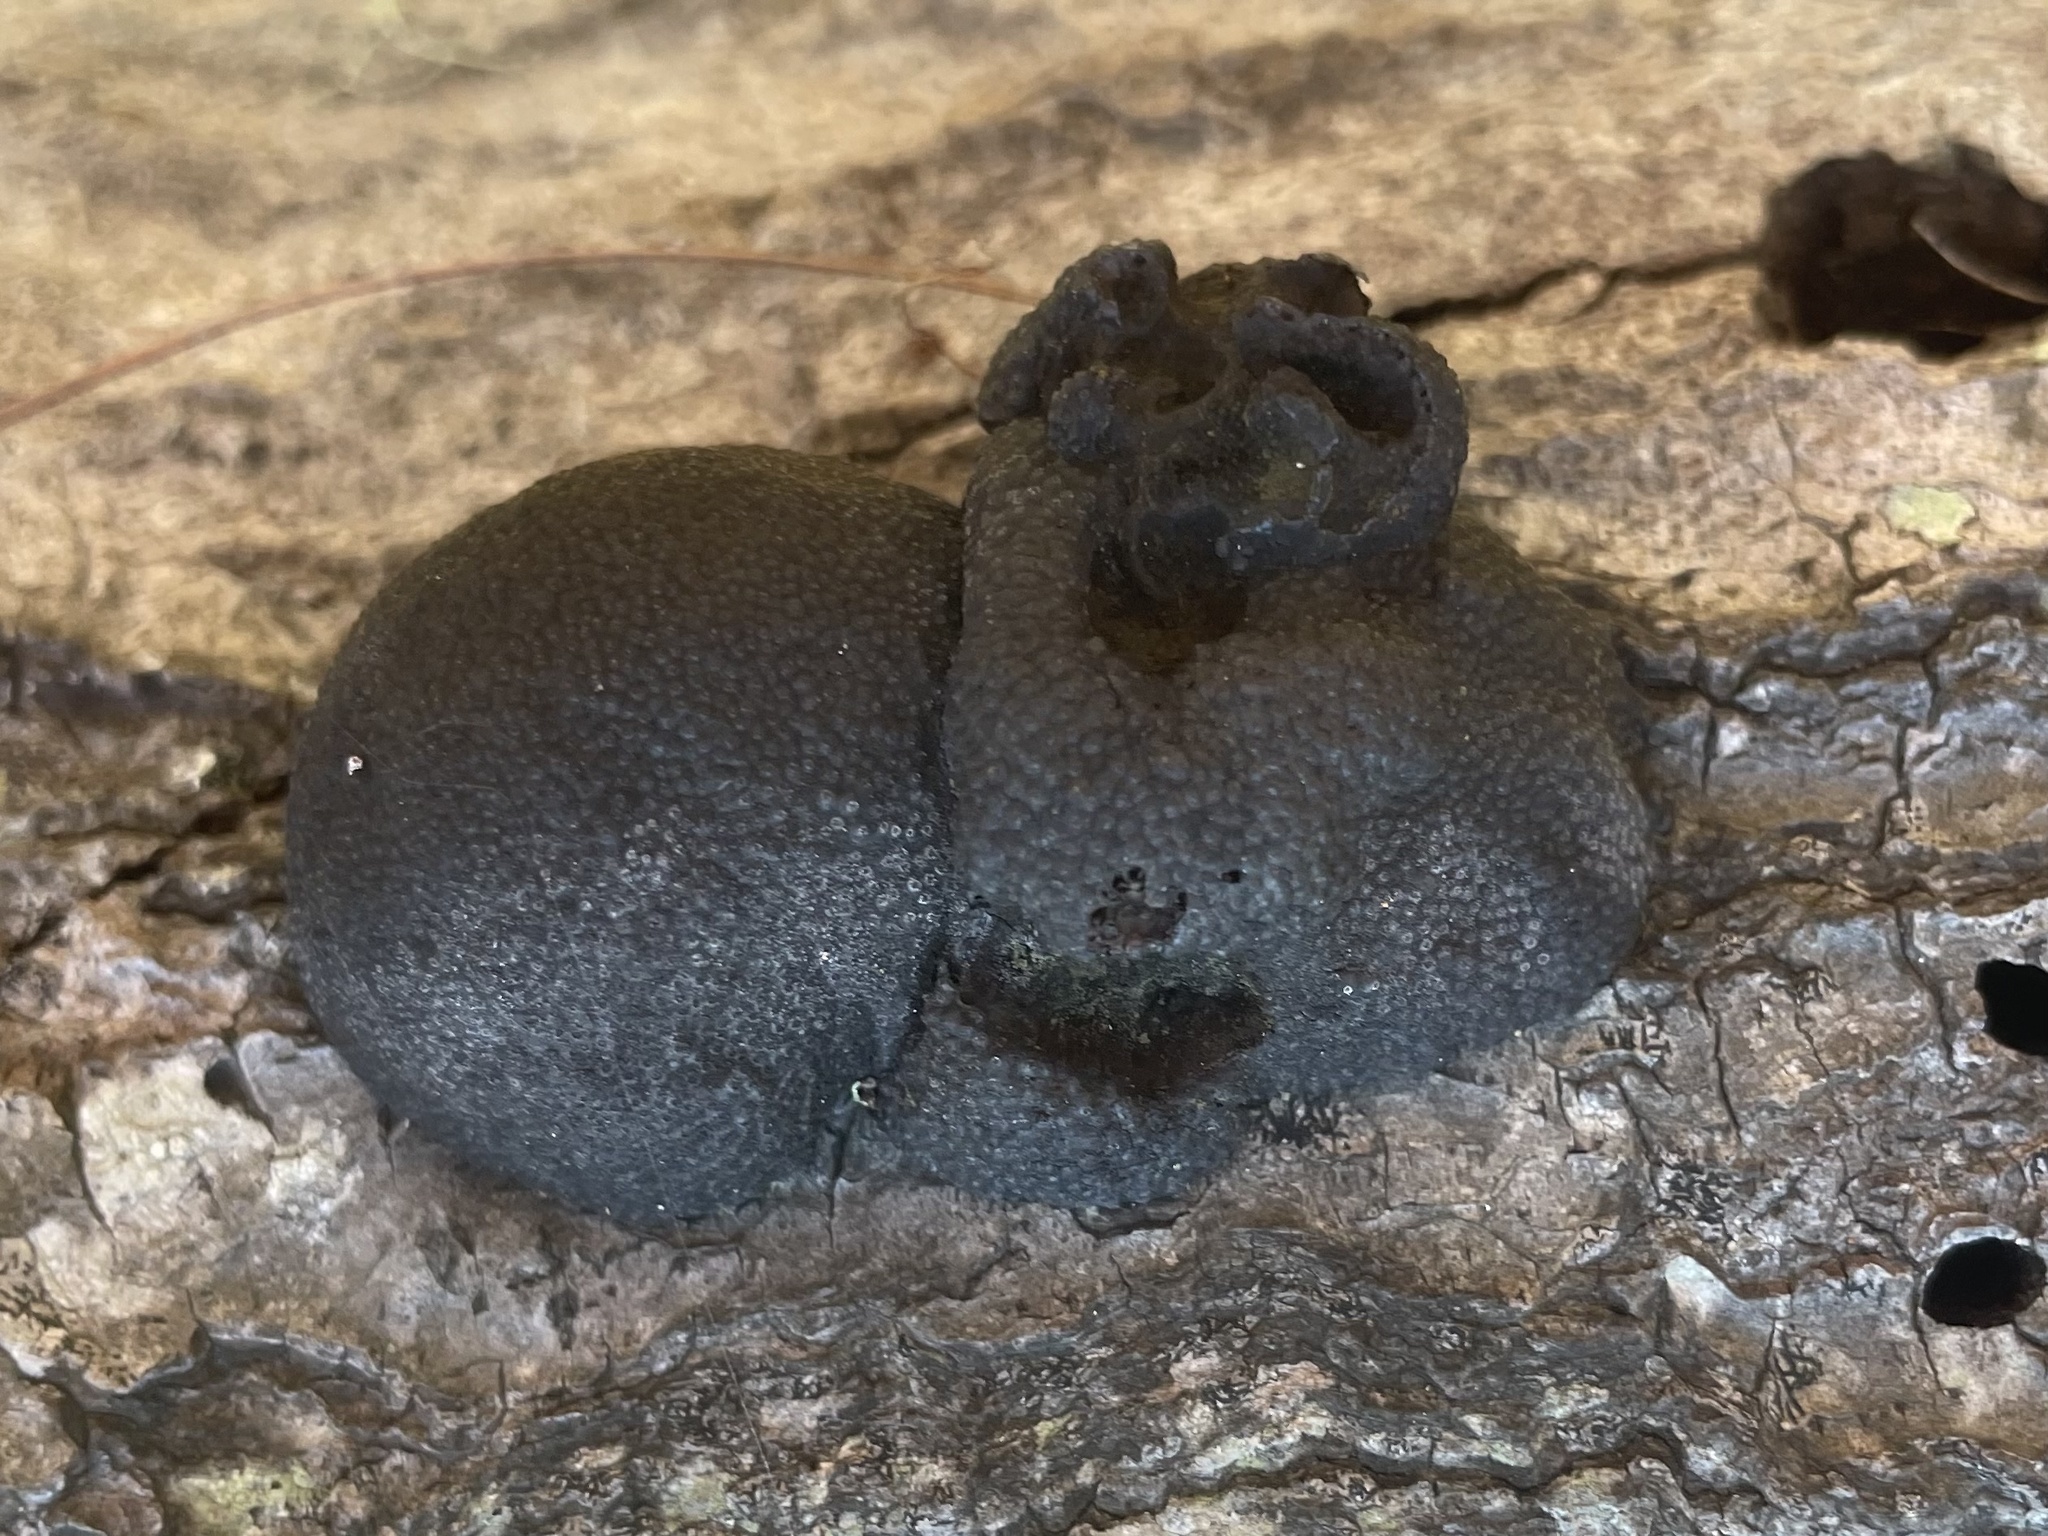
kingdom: Fungi
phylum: Ascomycota
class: Sordariomycetes
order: Xylariales
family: Hypoxylaceae
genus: Annulohypoxylon
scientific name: Annulohypoxylon thouarsianum
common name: Cramp balls
